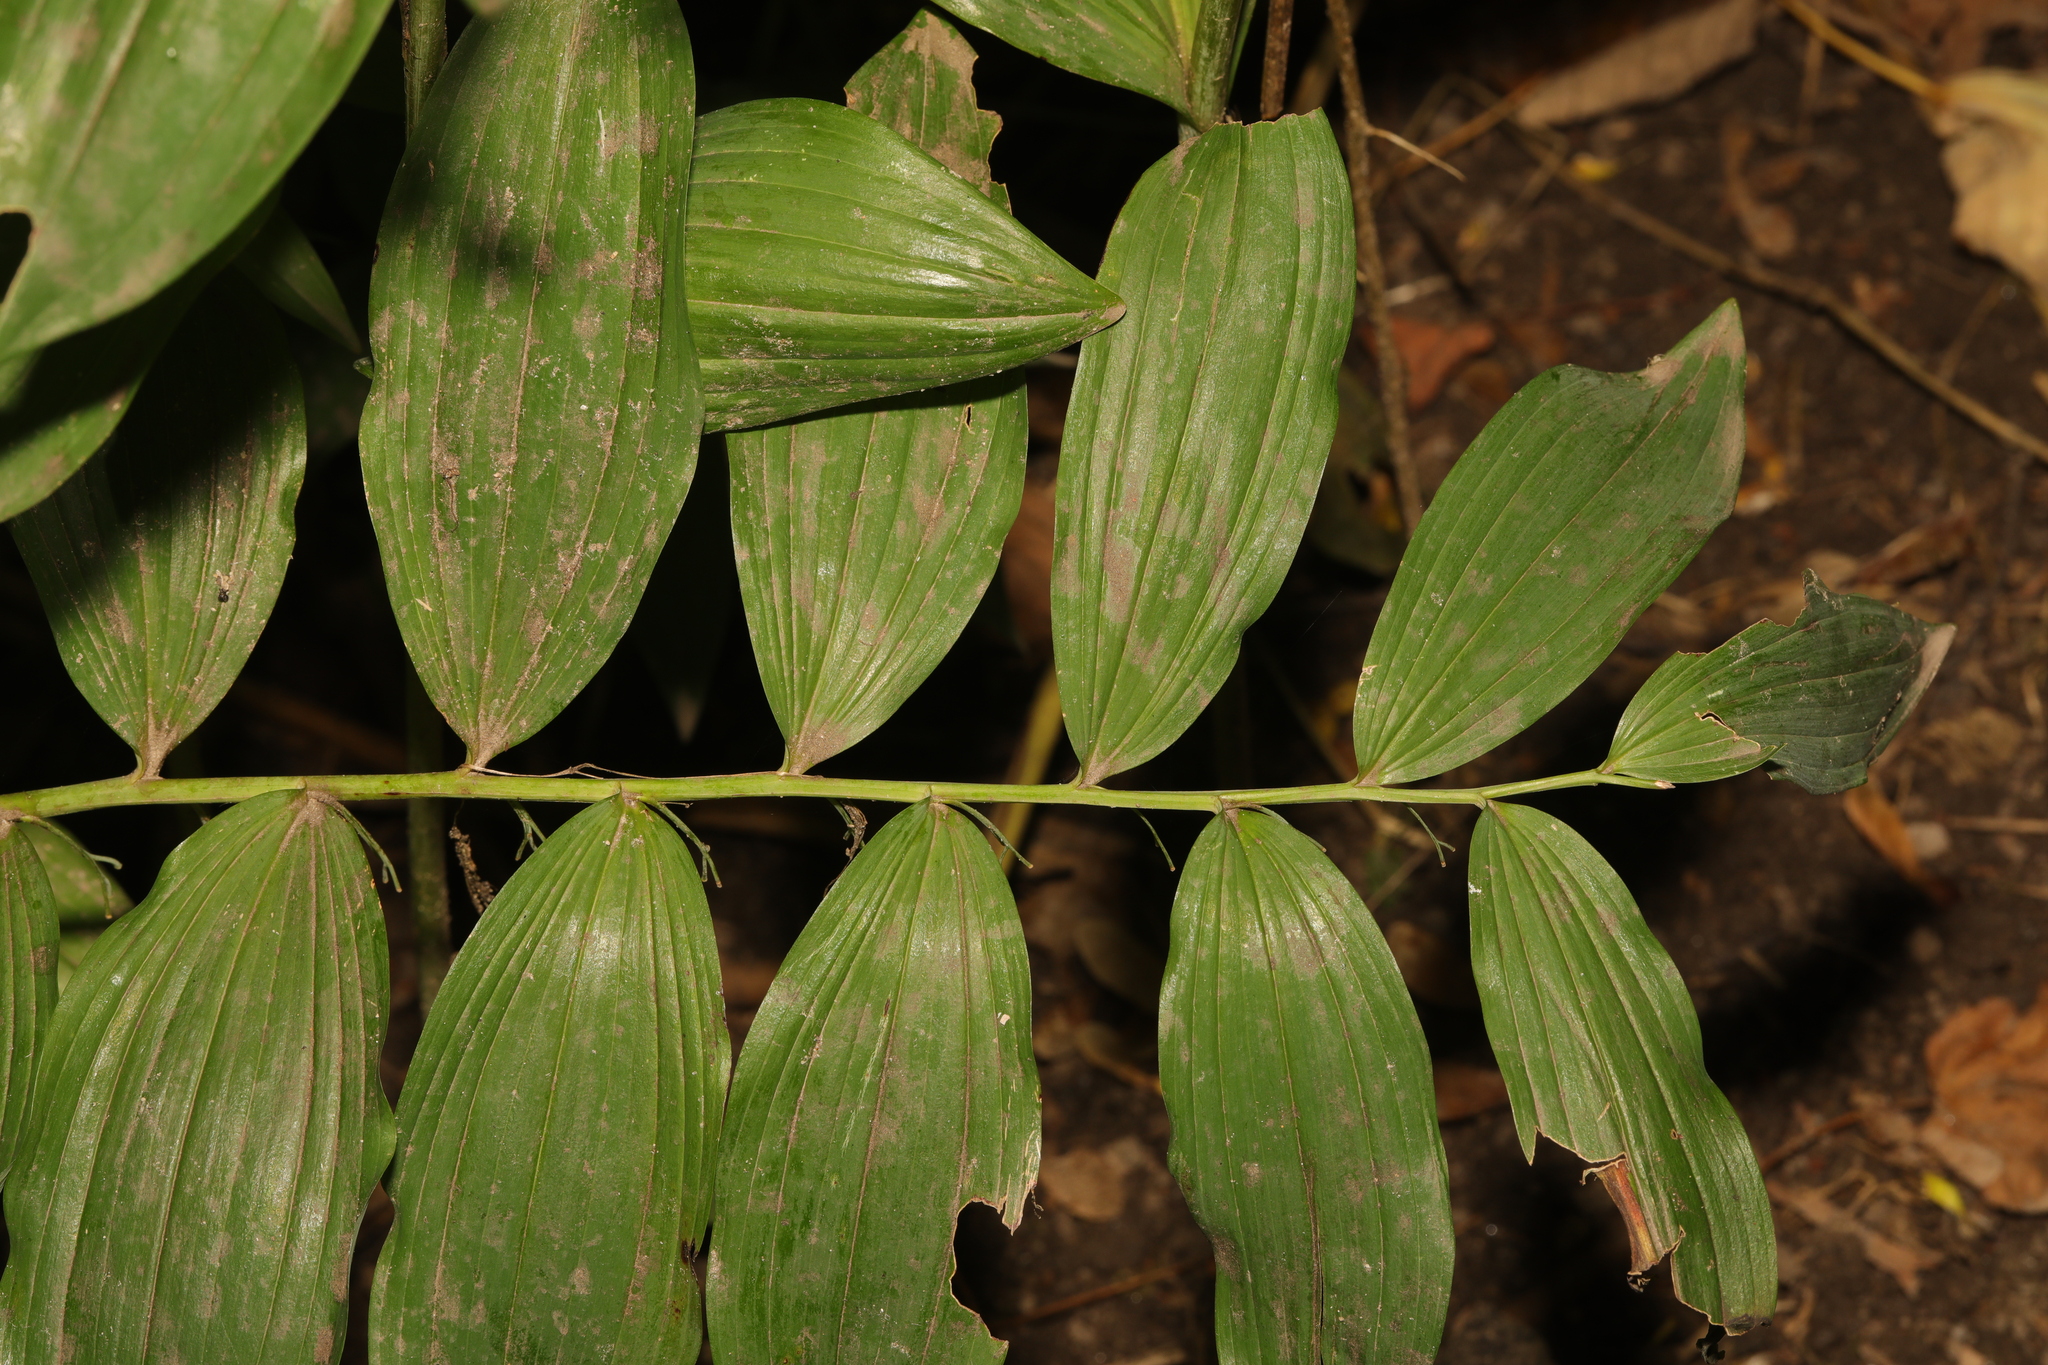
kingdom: Plantae
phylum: Tracheophyta
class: Liliopsida
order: Asparagales
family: Asparagaceae
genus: Polygonatum
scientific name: Polygonatum hybridum
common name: Garden solomon's-seal
